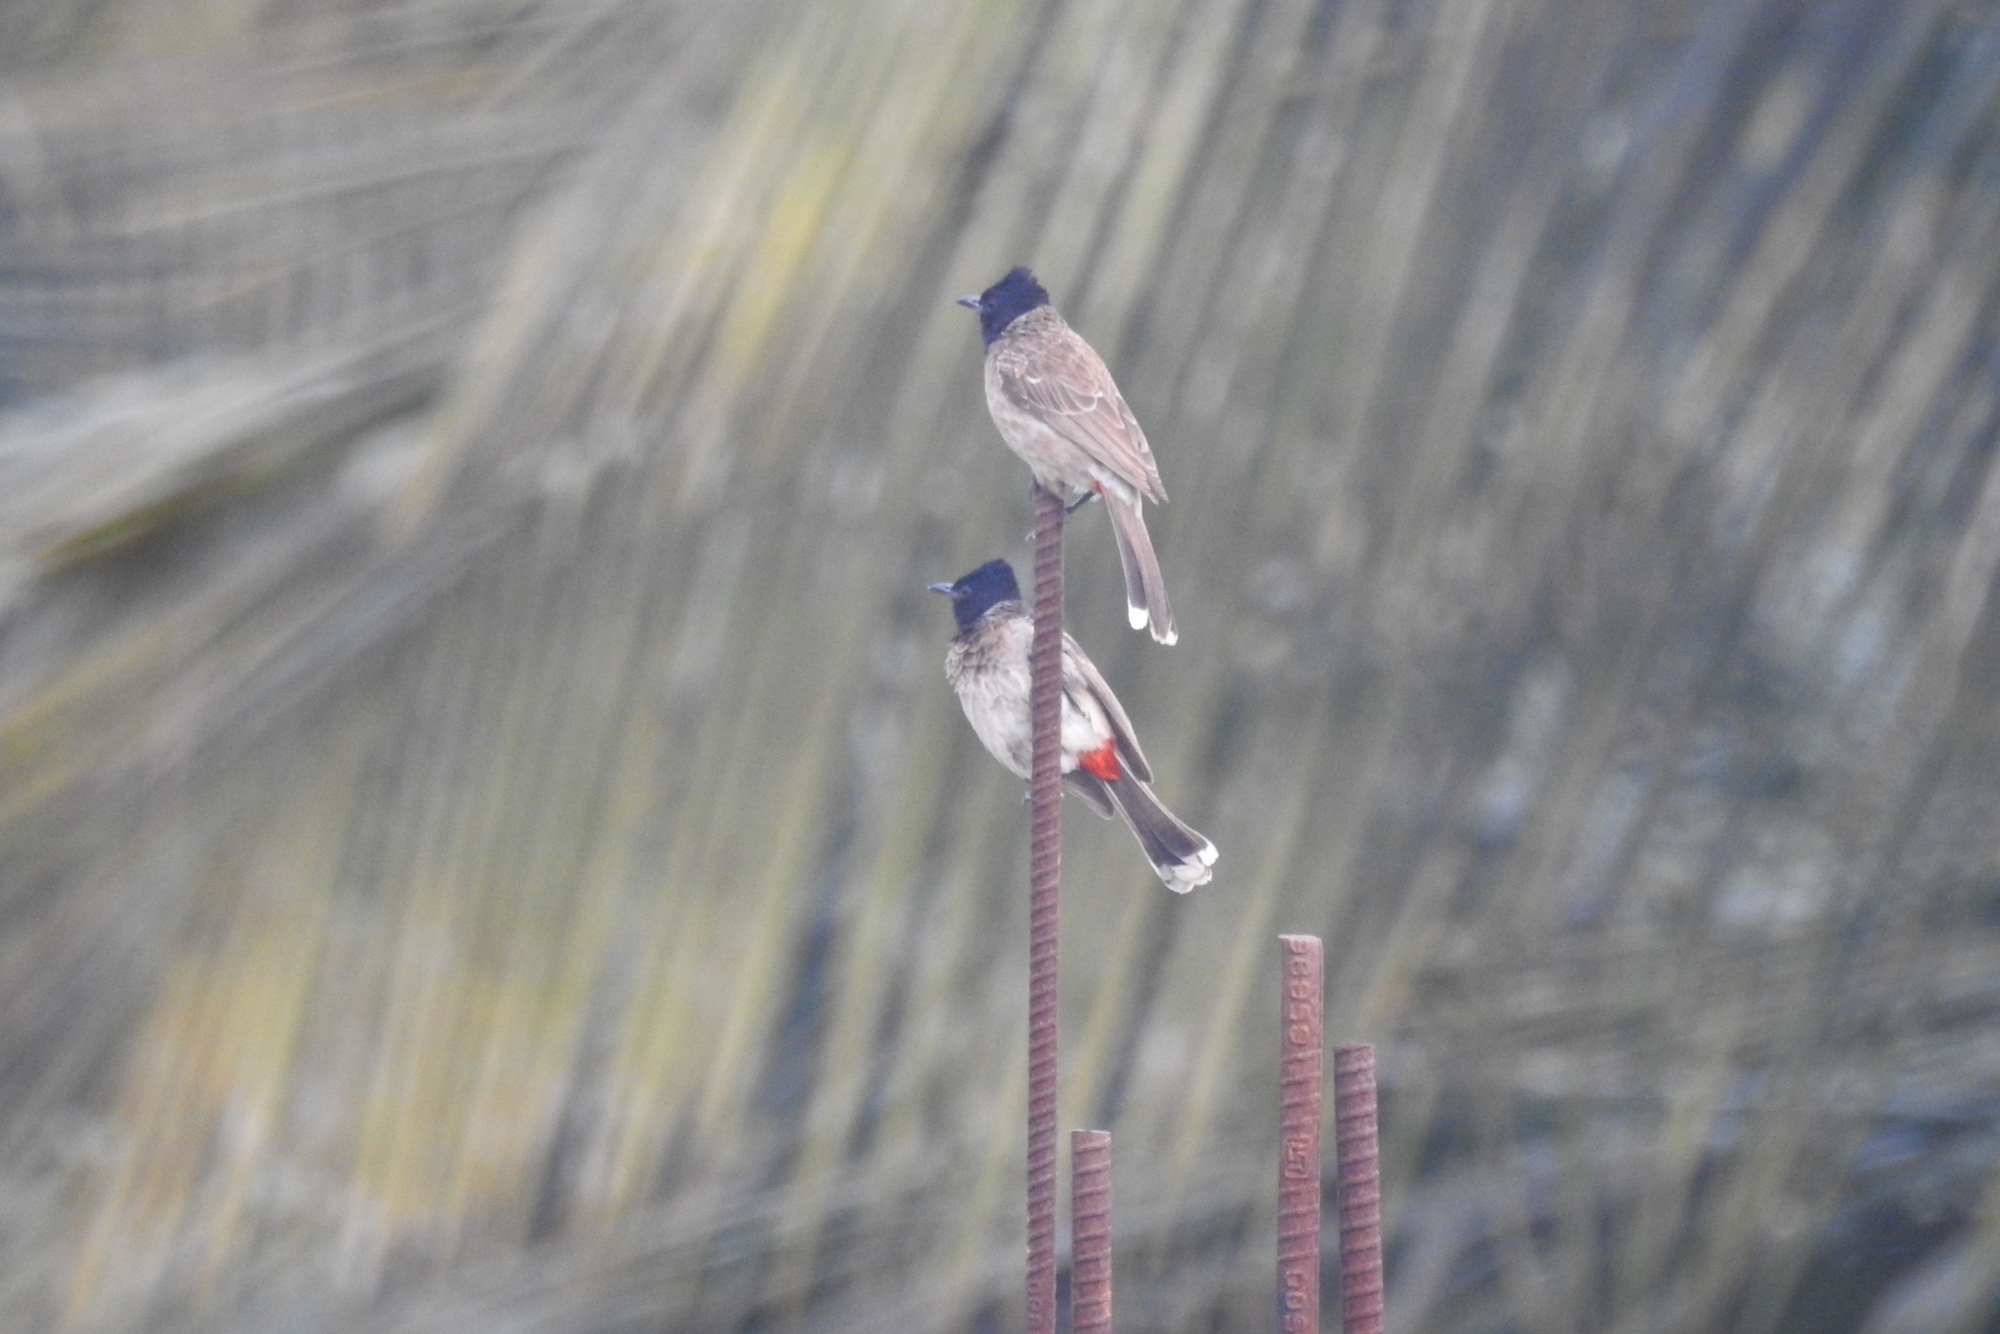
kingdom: Animalia
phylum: Chordata
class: Aves
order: Passeriformes
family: Pycnonotidae
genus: Pycnonotus
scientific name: Pycnonotus cafer
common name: Red-vented bulbul
